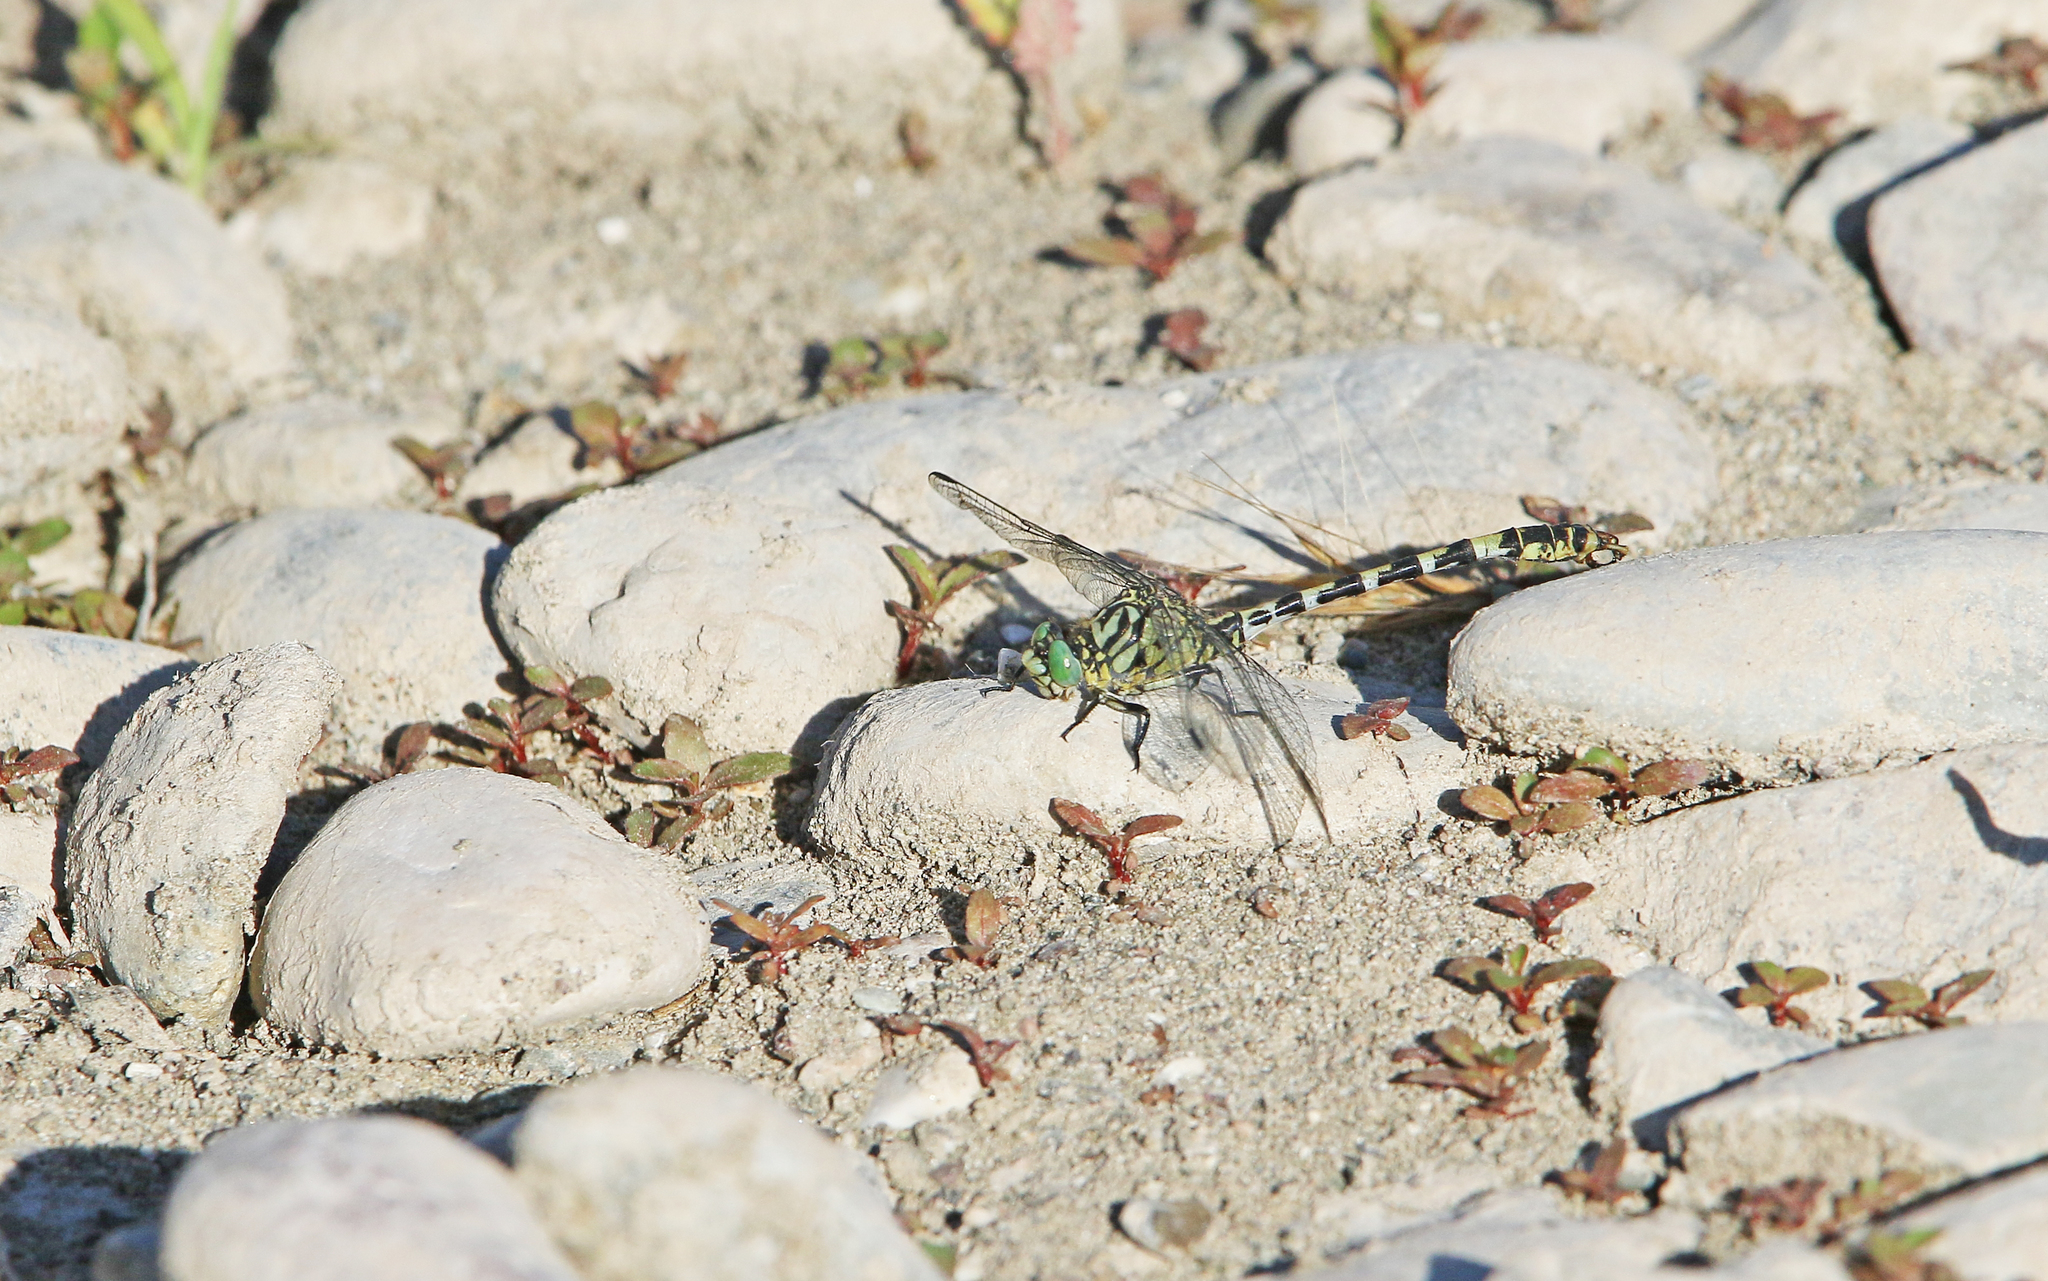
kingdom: Animalia
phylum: Arthropoda
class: Insecta
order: Odonata
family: Gomphidae
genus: Onychogomphus
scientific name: Onychogomphus forcipatus
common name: Small pincertail
